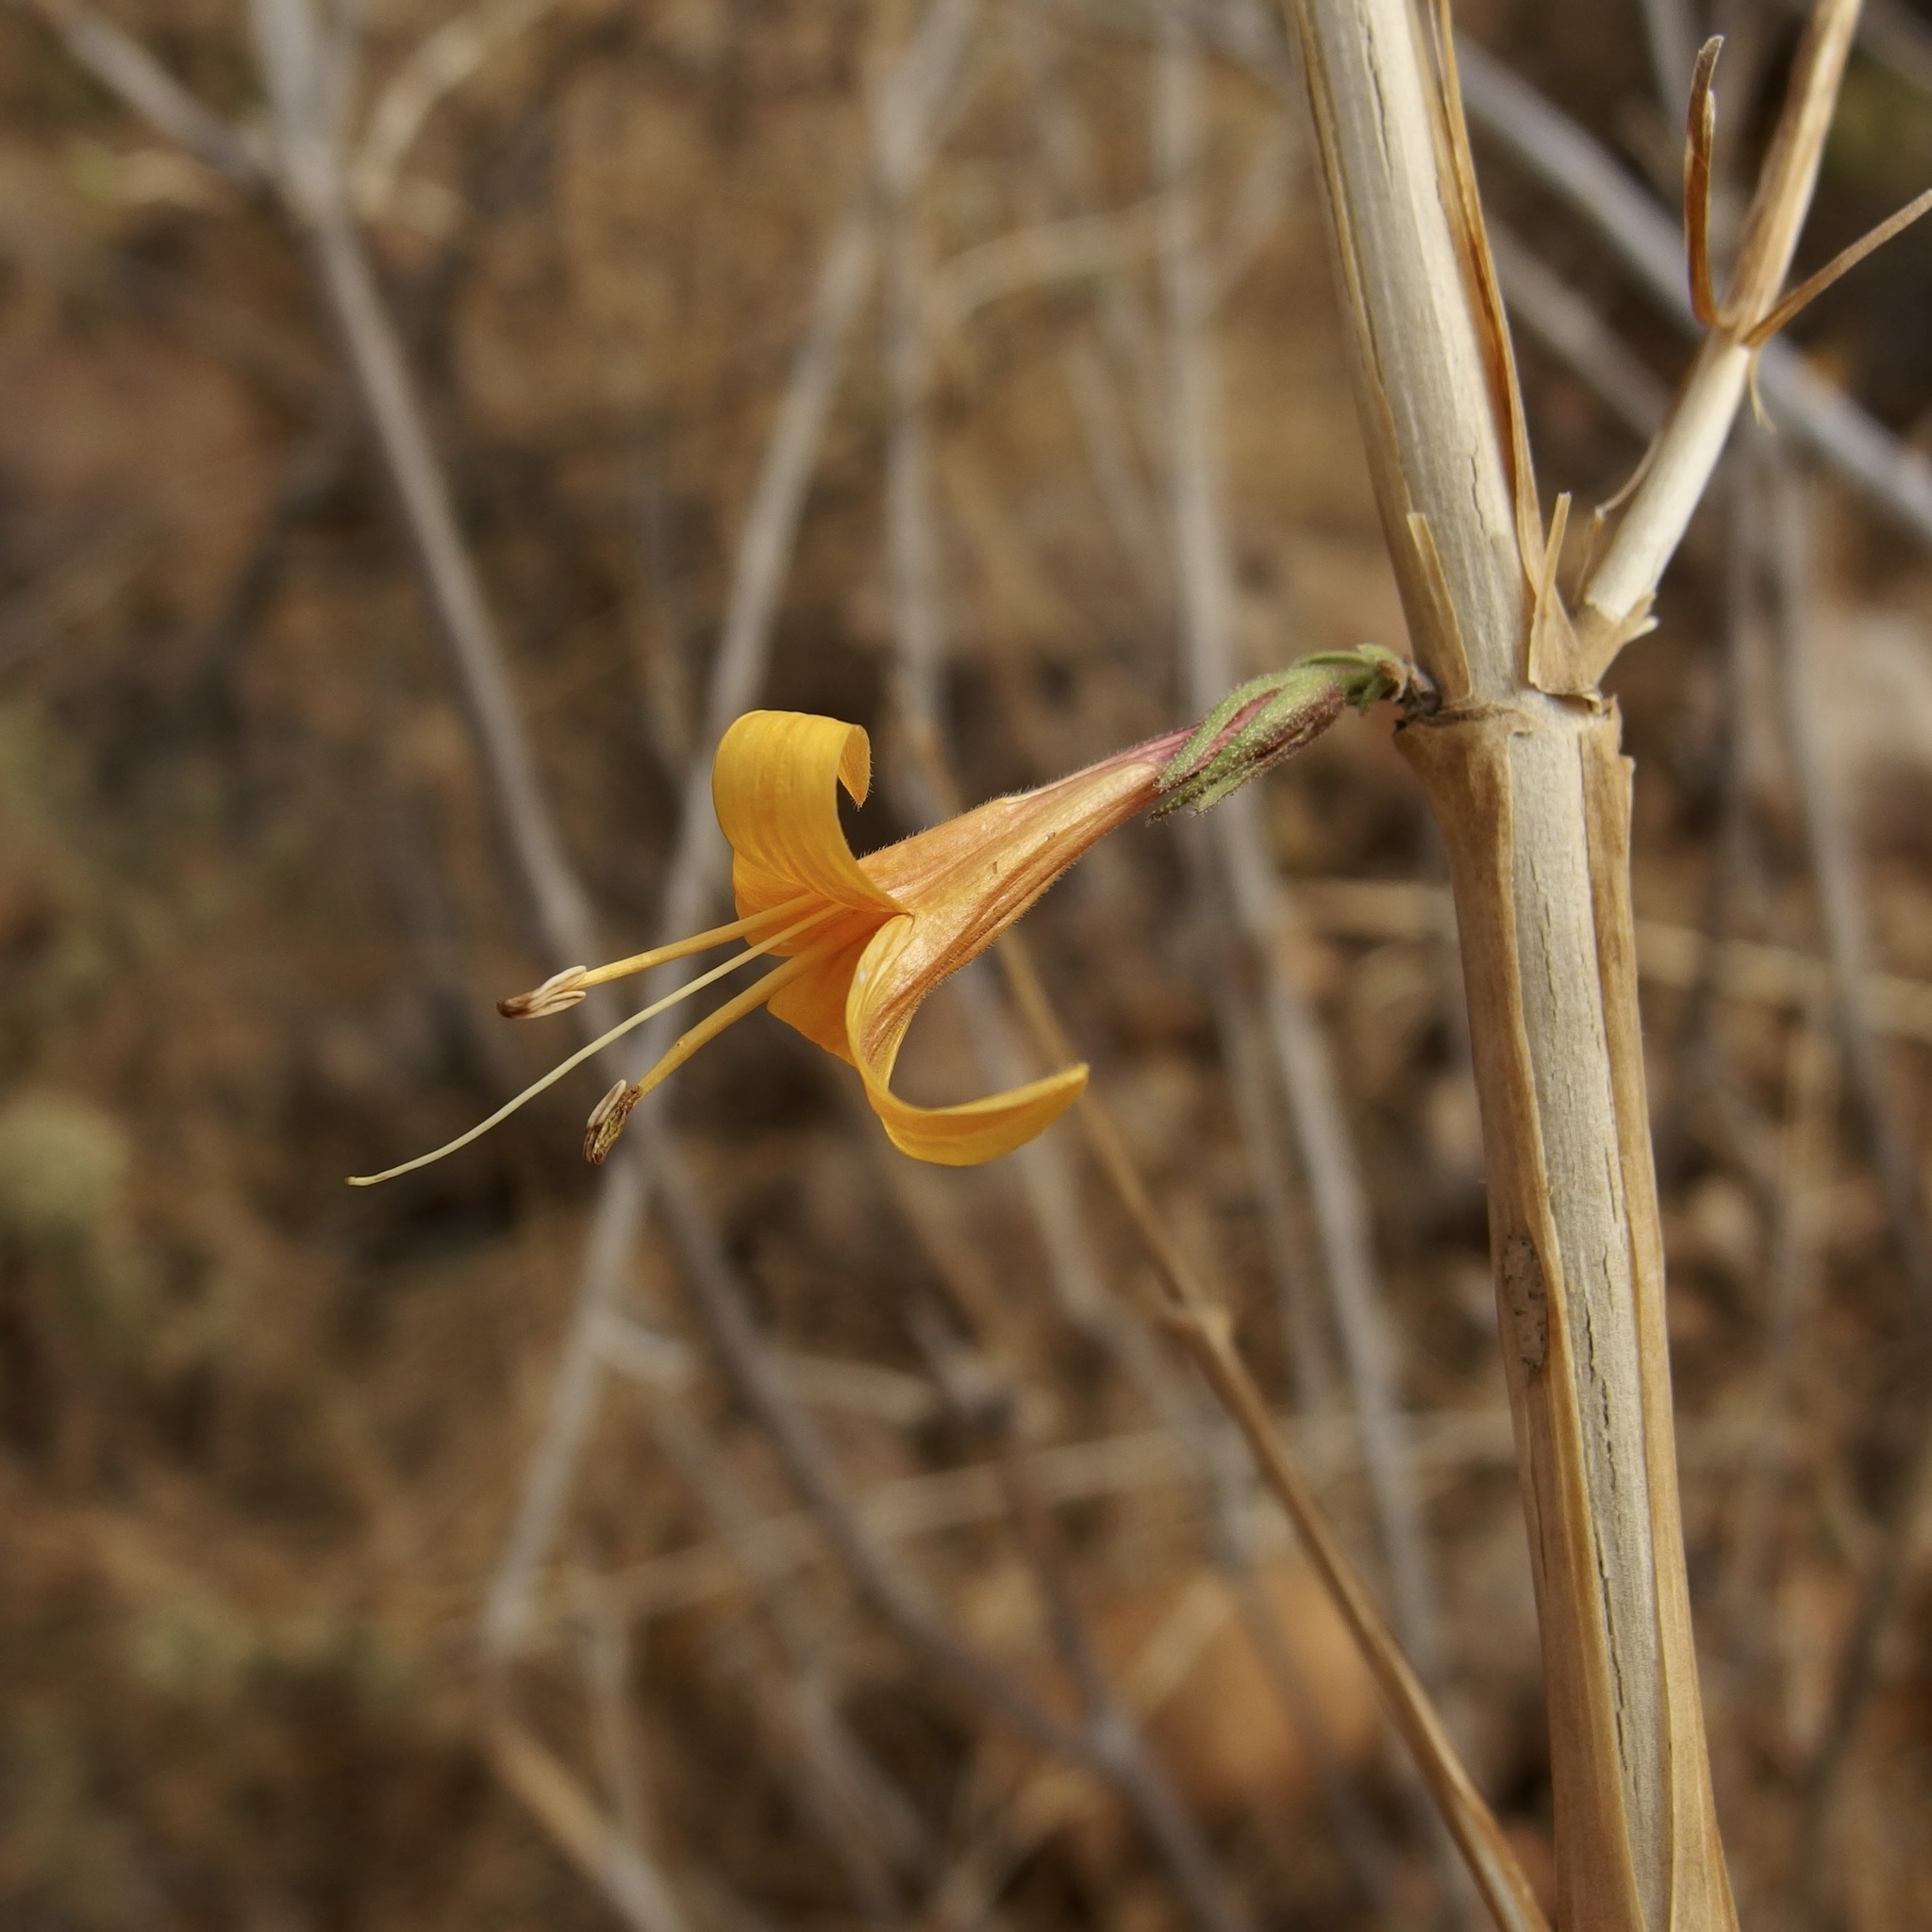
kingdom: Plantae
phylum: Tracheophyta
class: Magnoliopsida
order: Lamiales
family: Acanthaceae
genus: Anisacanthus
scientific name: Anisacanthus thurberi
